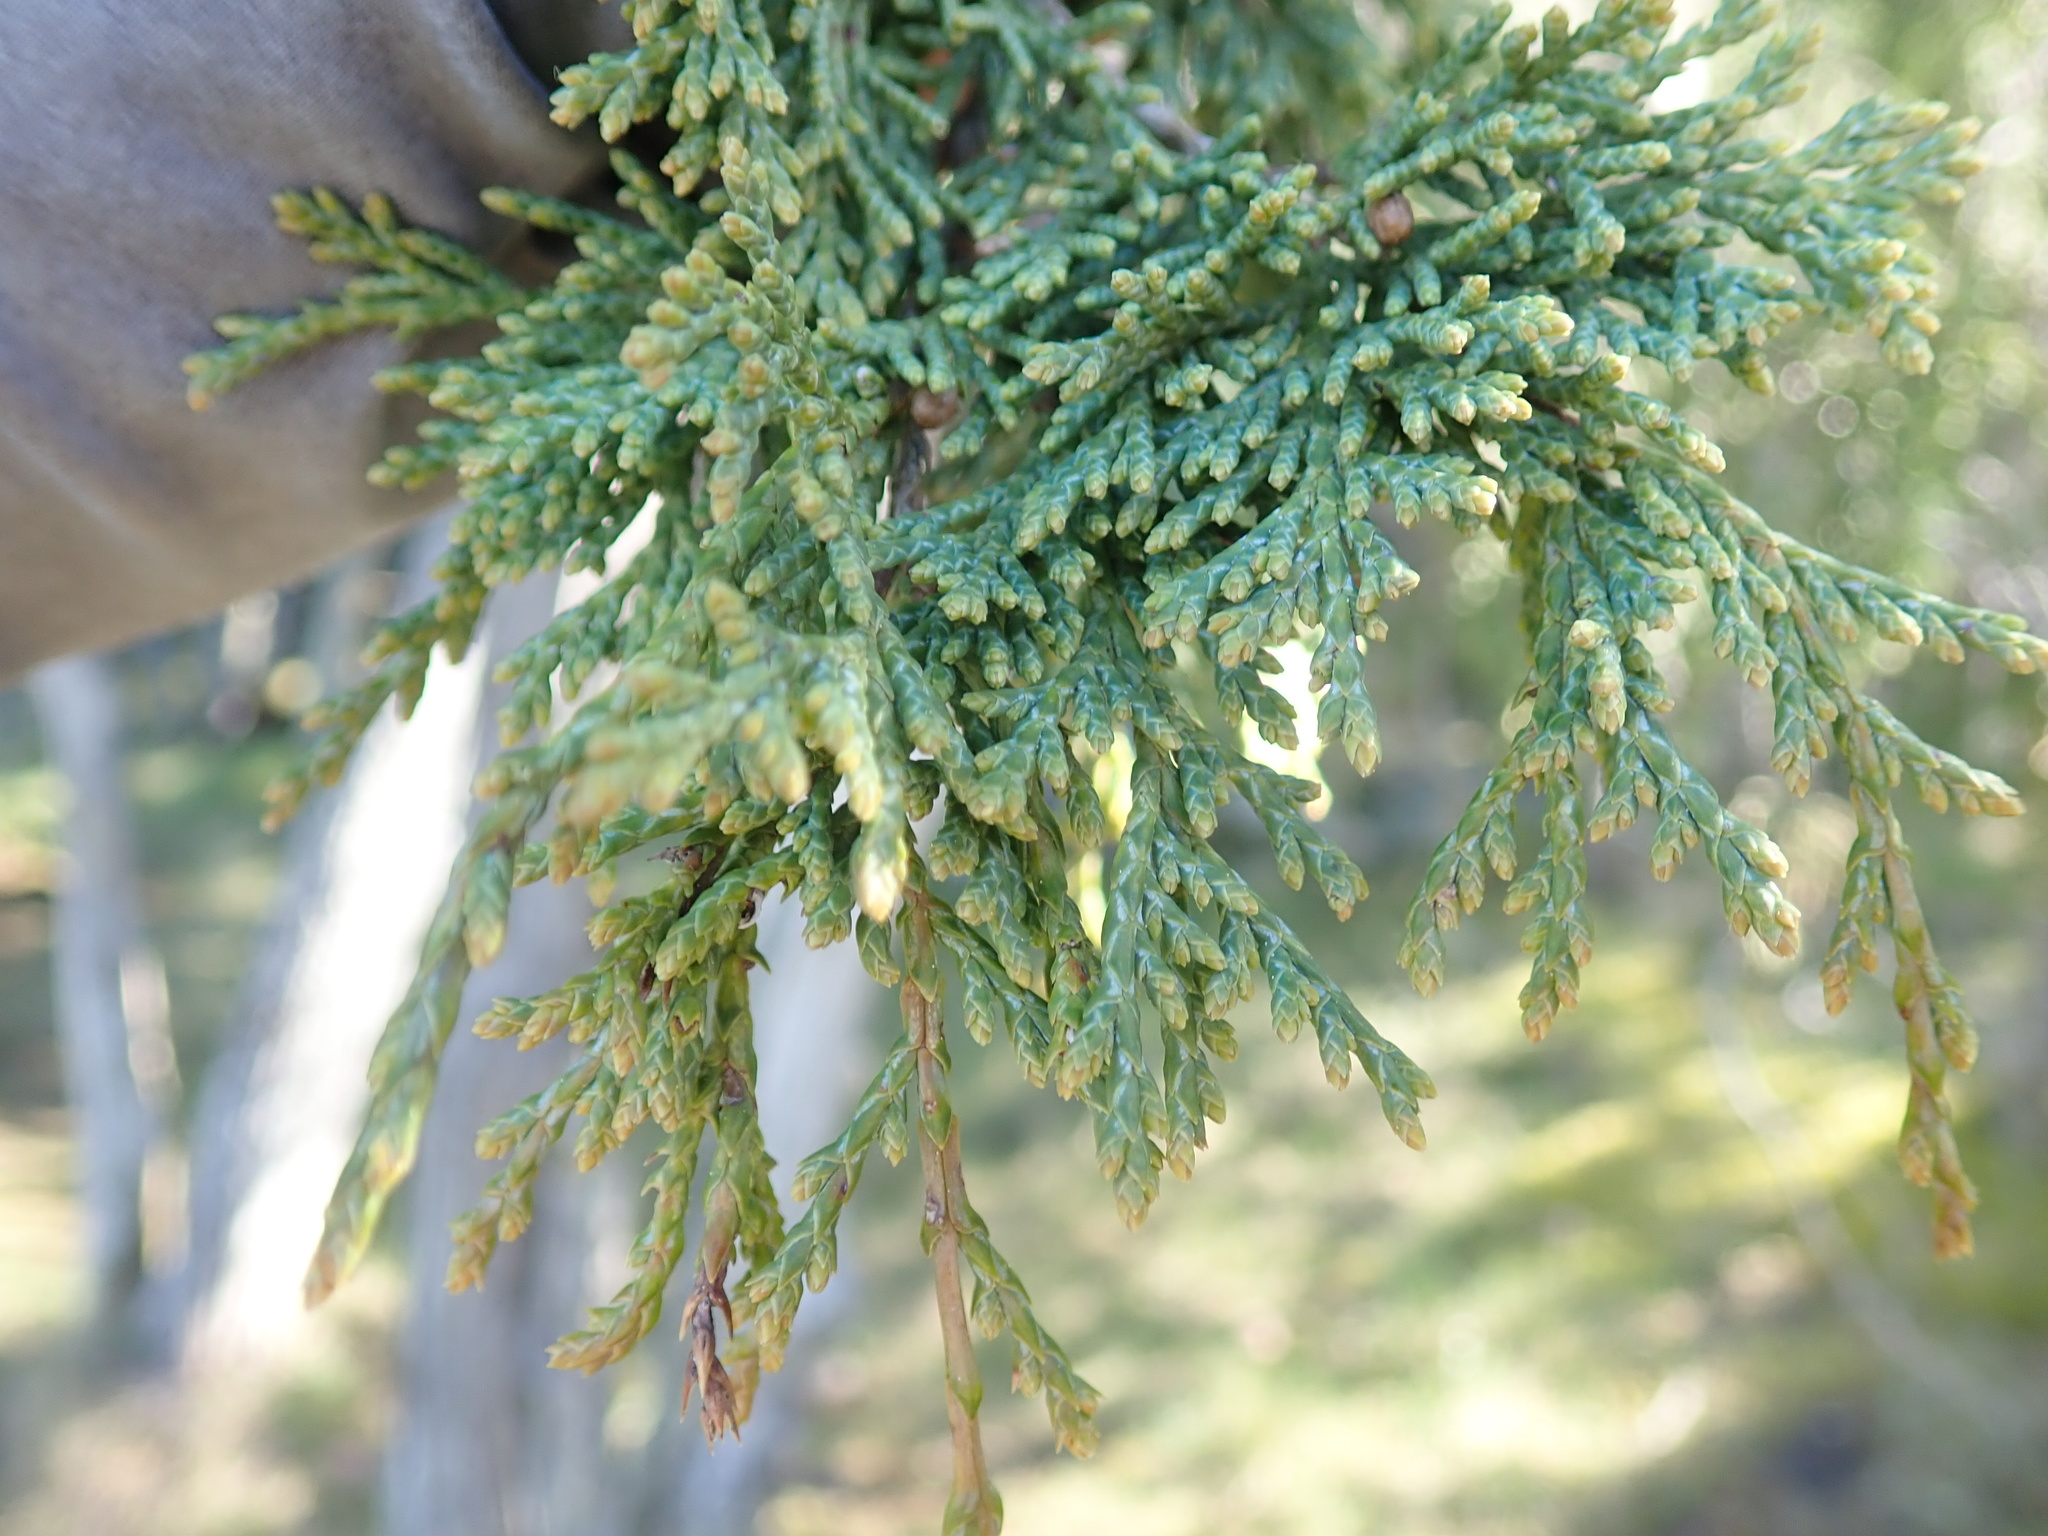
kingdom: Plantae
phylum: Tracheophyta
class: Pinopsida
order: Pinales
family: Cupressaceae
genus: Juniperus
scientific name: Juniperus scopulorum
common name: Rocky mountain juniper
